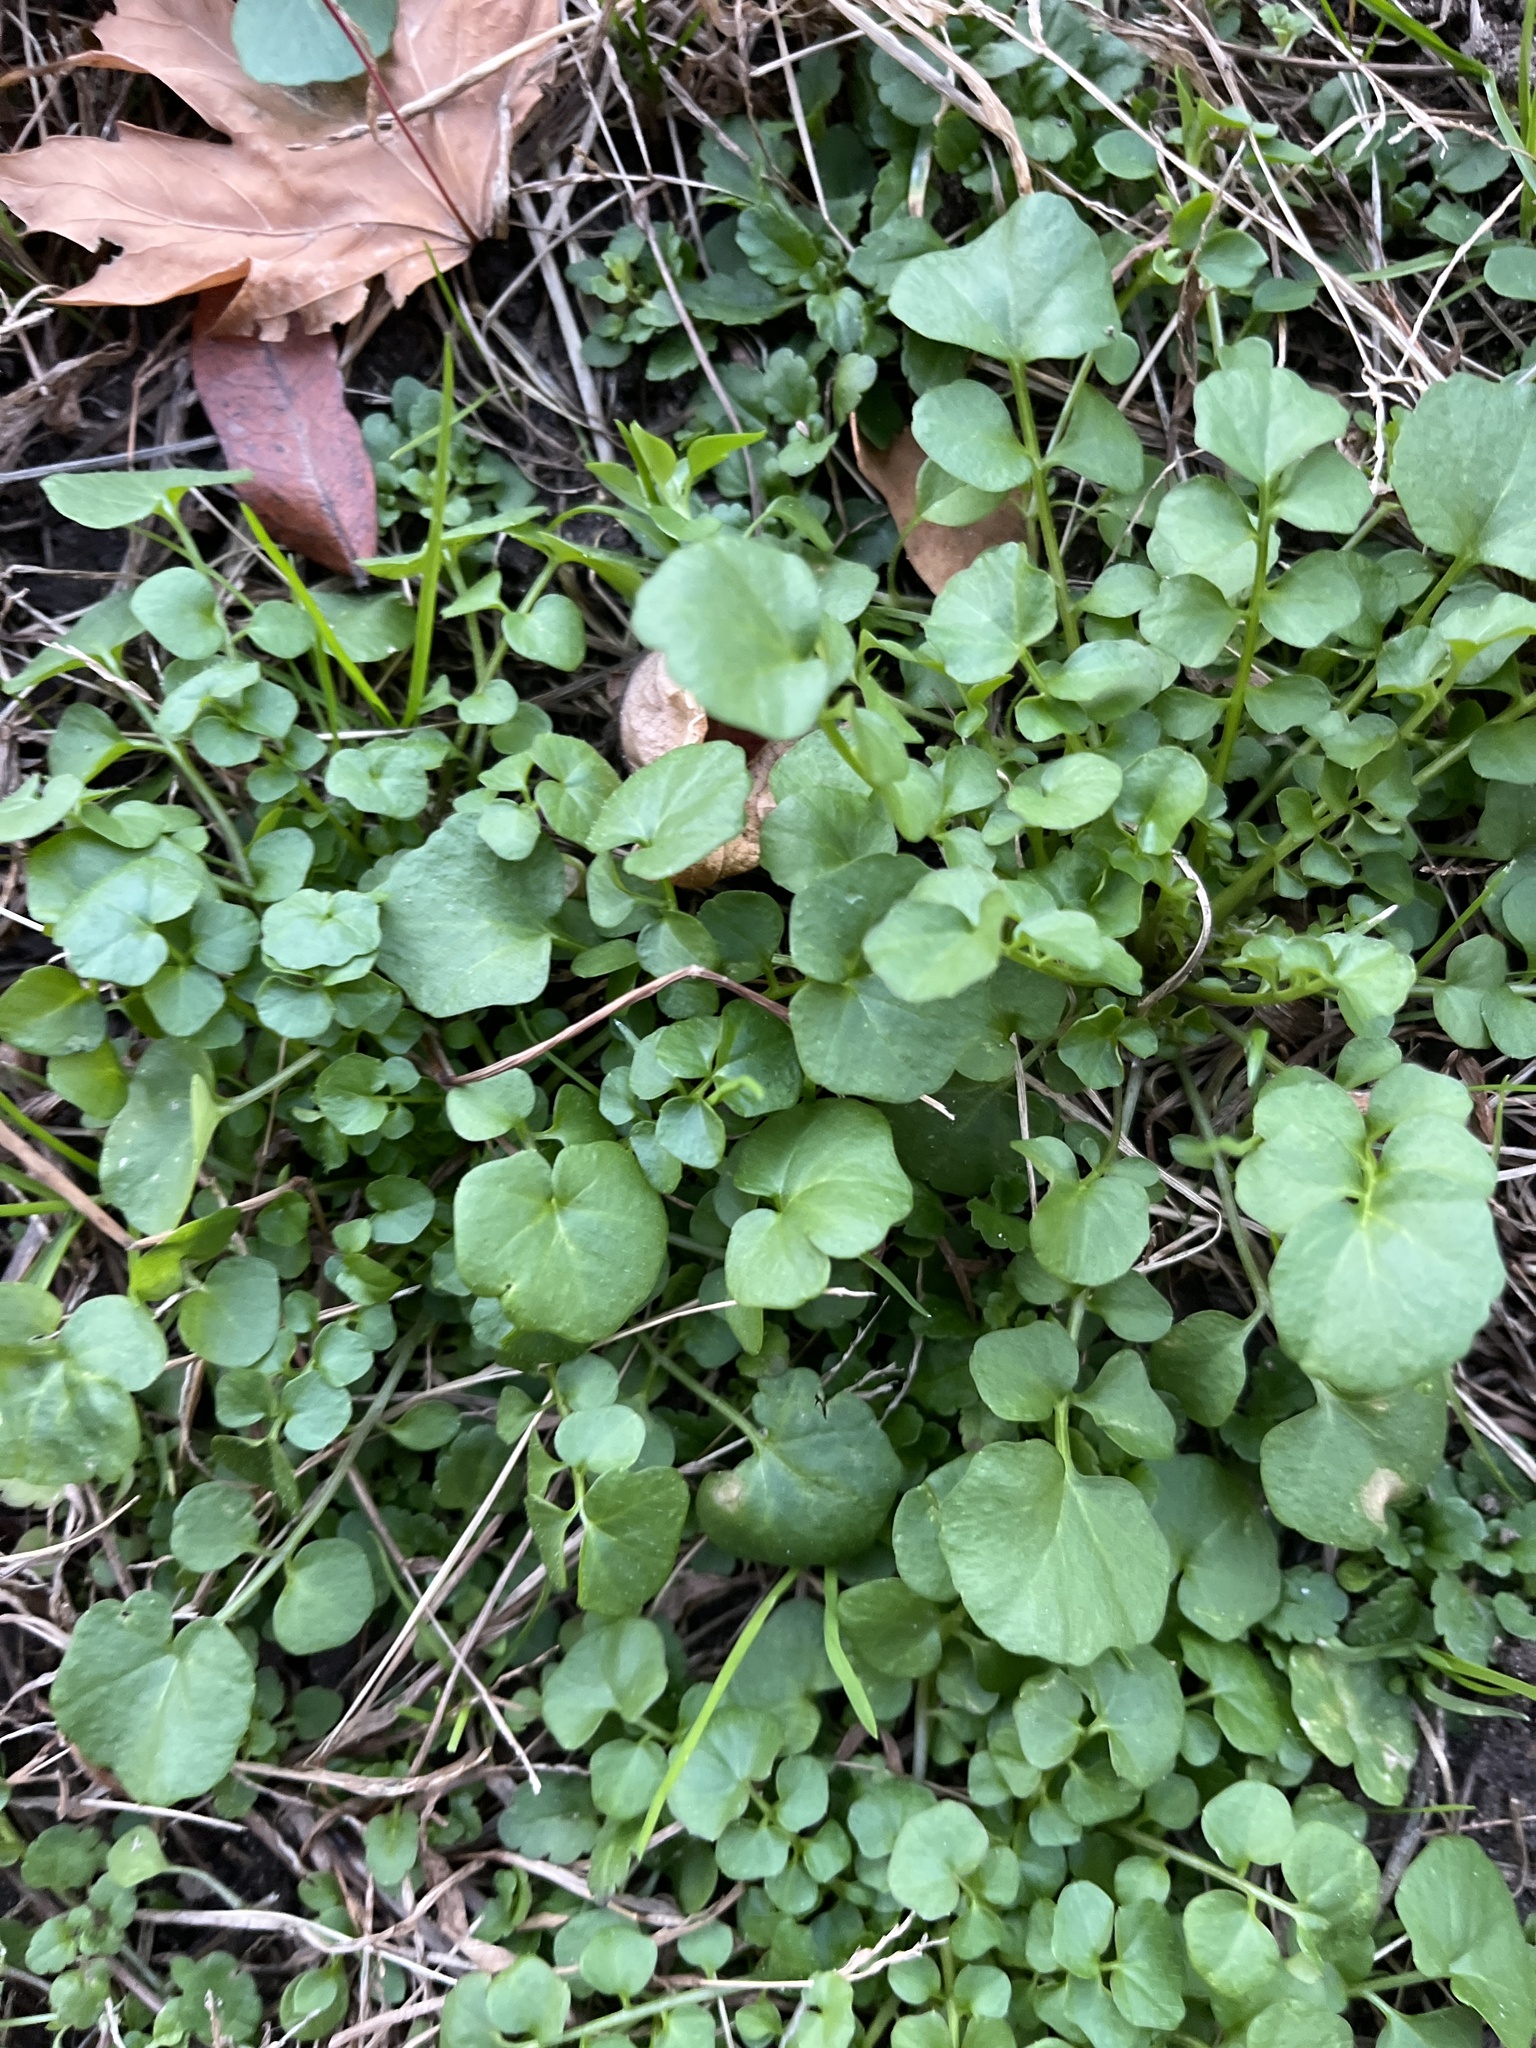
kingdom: Plantae
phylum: Tracheophyta
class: Magnoliopsida
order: Brassicales
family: Brassicaceae
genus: Cardamine
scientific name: Cardamine hirsuta
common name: Hairy bittercress
